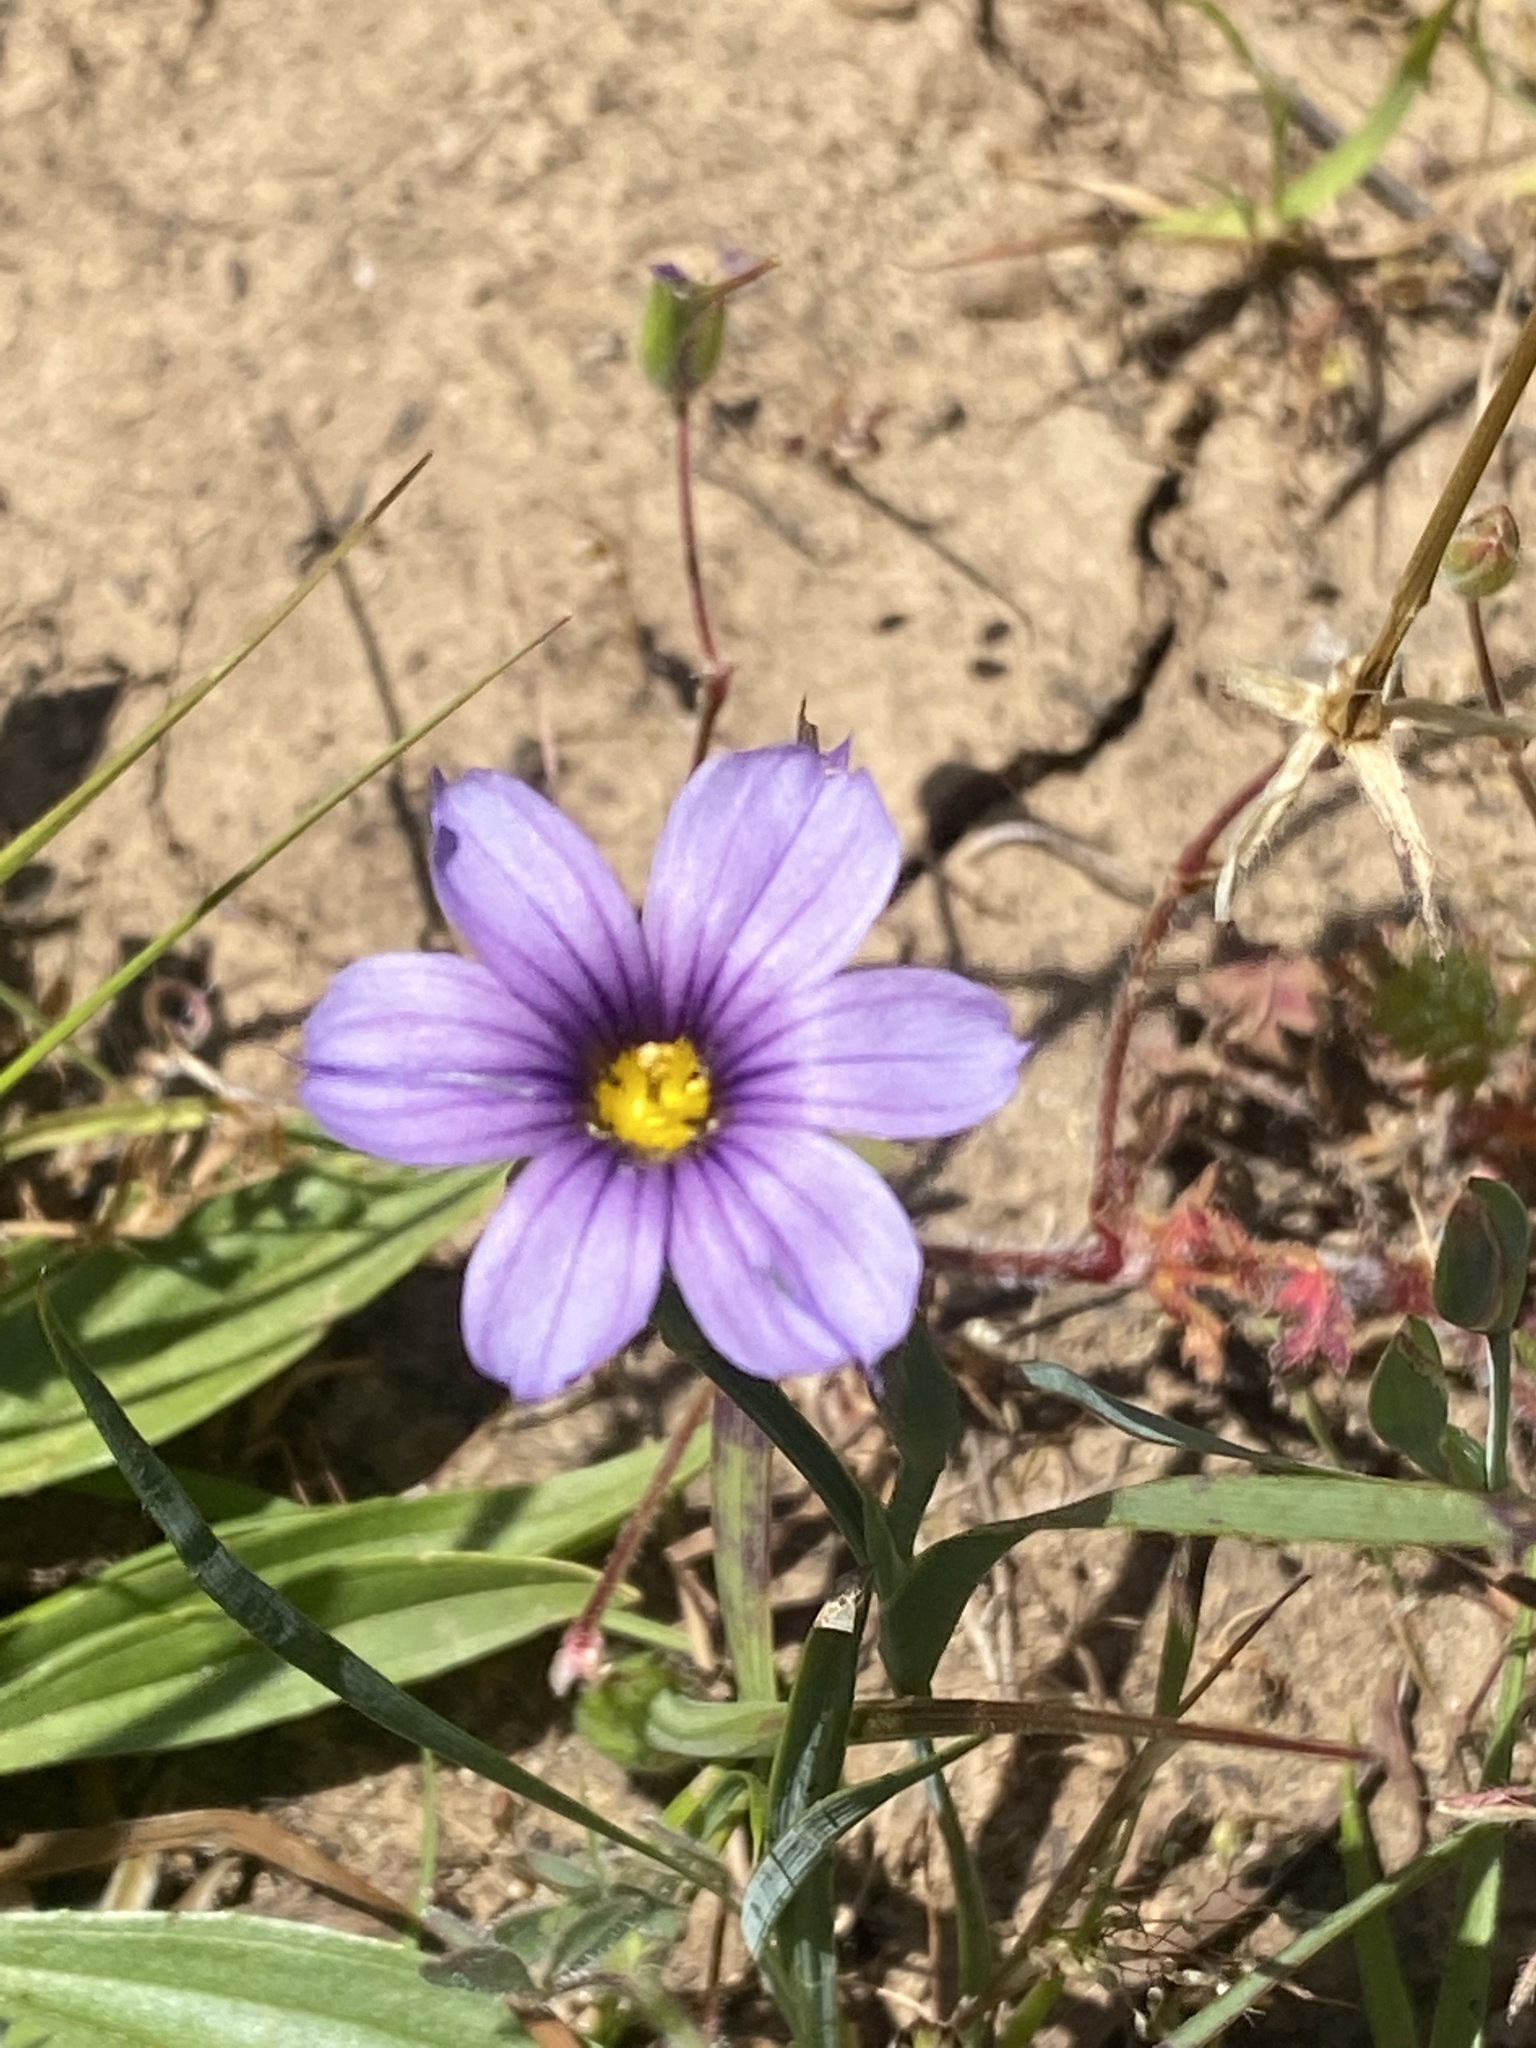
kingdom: Plantae
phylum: Tracheophyta
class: Liliopsida
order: Asparagales
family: Iridaceae
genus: Sisyrinchium
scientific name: Sisyrinchium bellum
